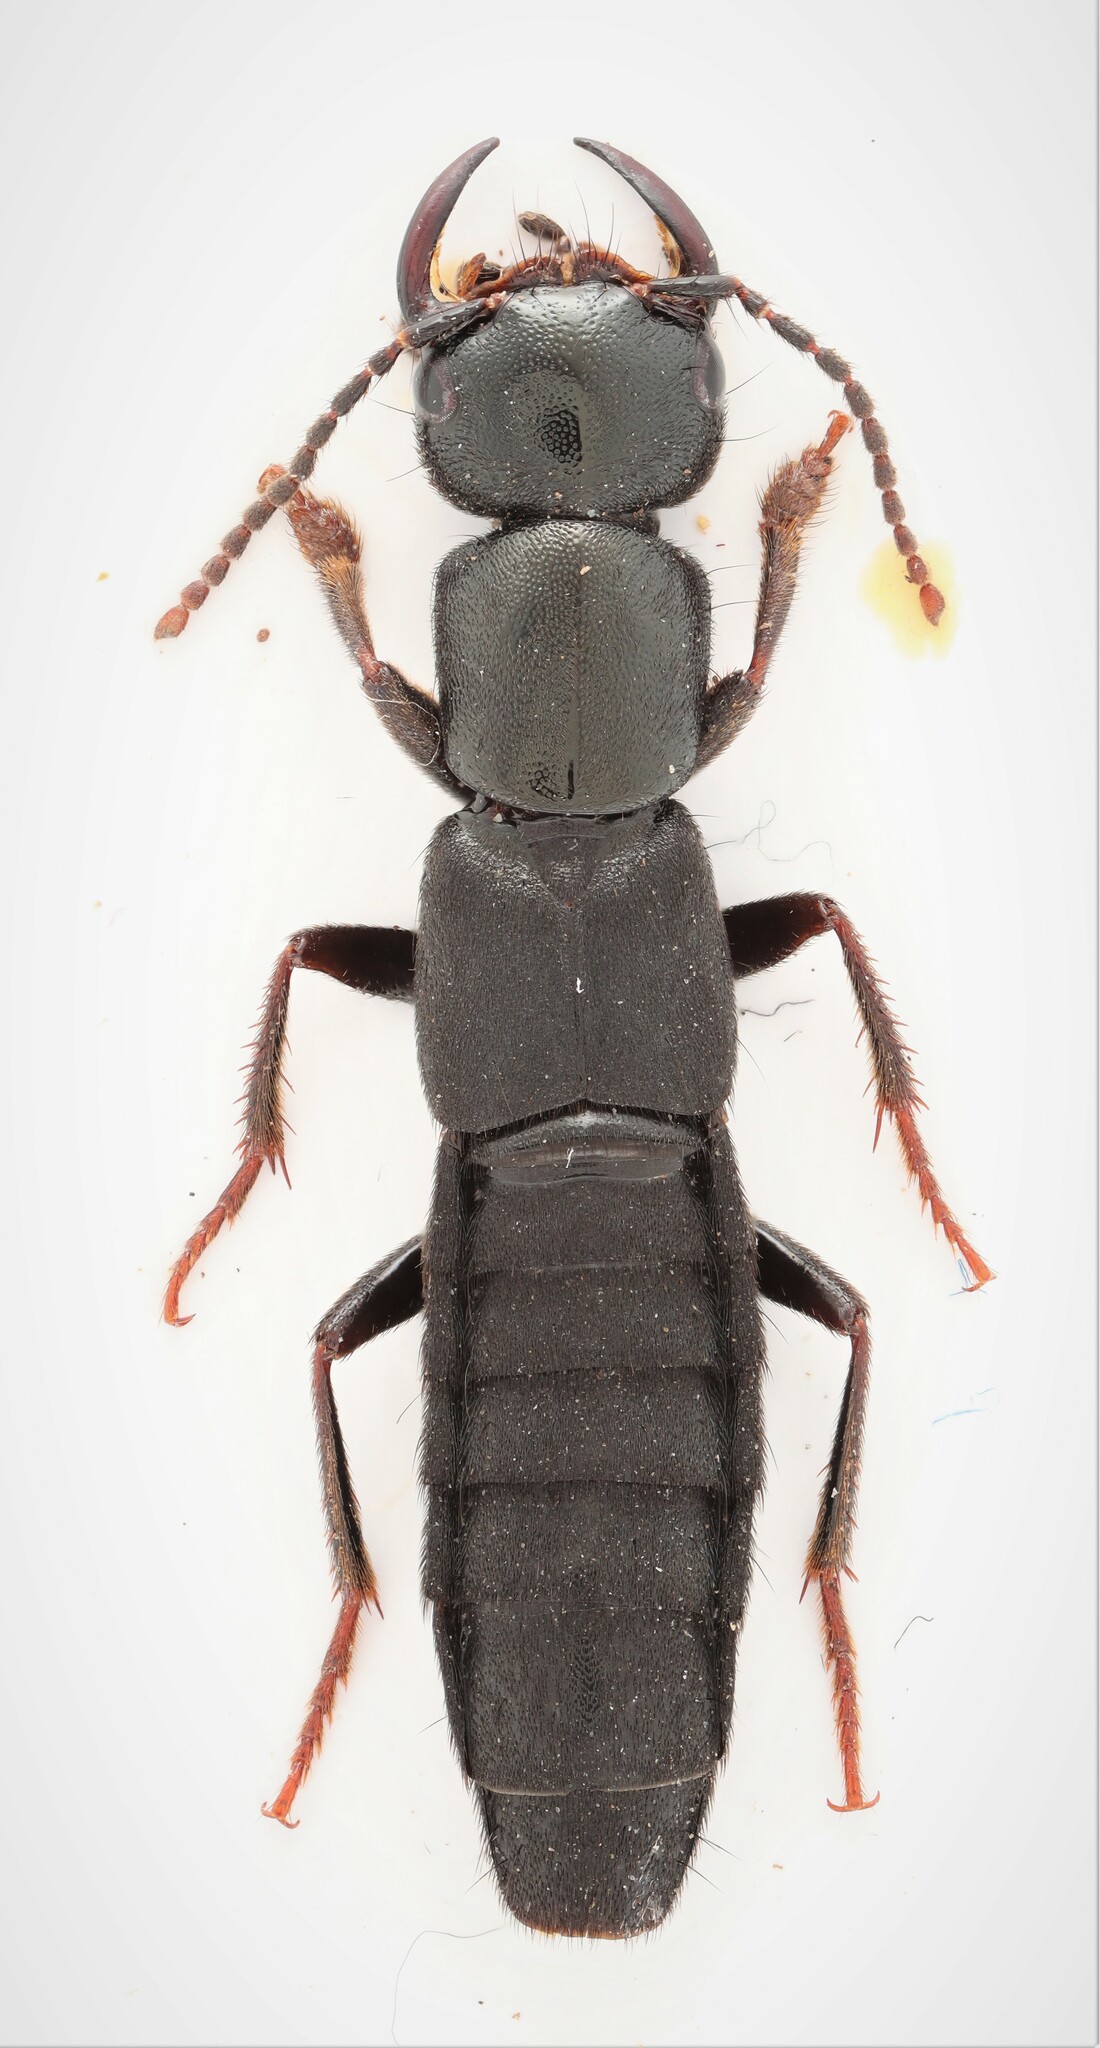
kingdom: Animalia
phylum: Arthropoda
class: Insecta
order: Coleoptera
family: Staphylinidae
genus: Tasgius
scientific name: Tasgius melanarius
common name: Rove beetle
